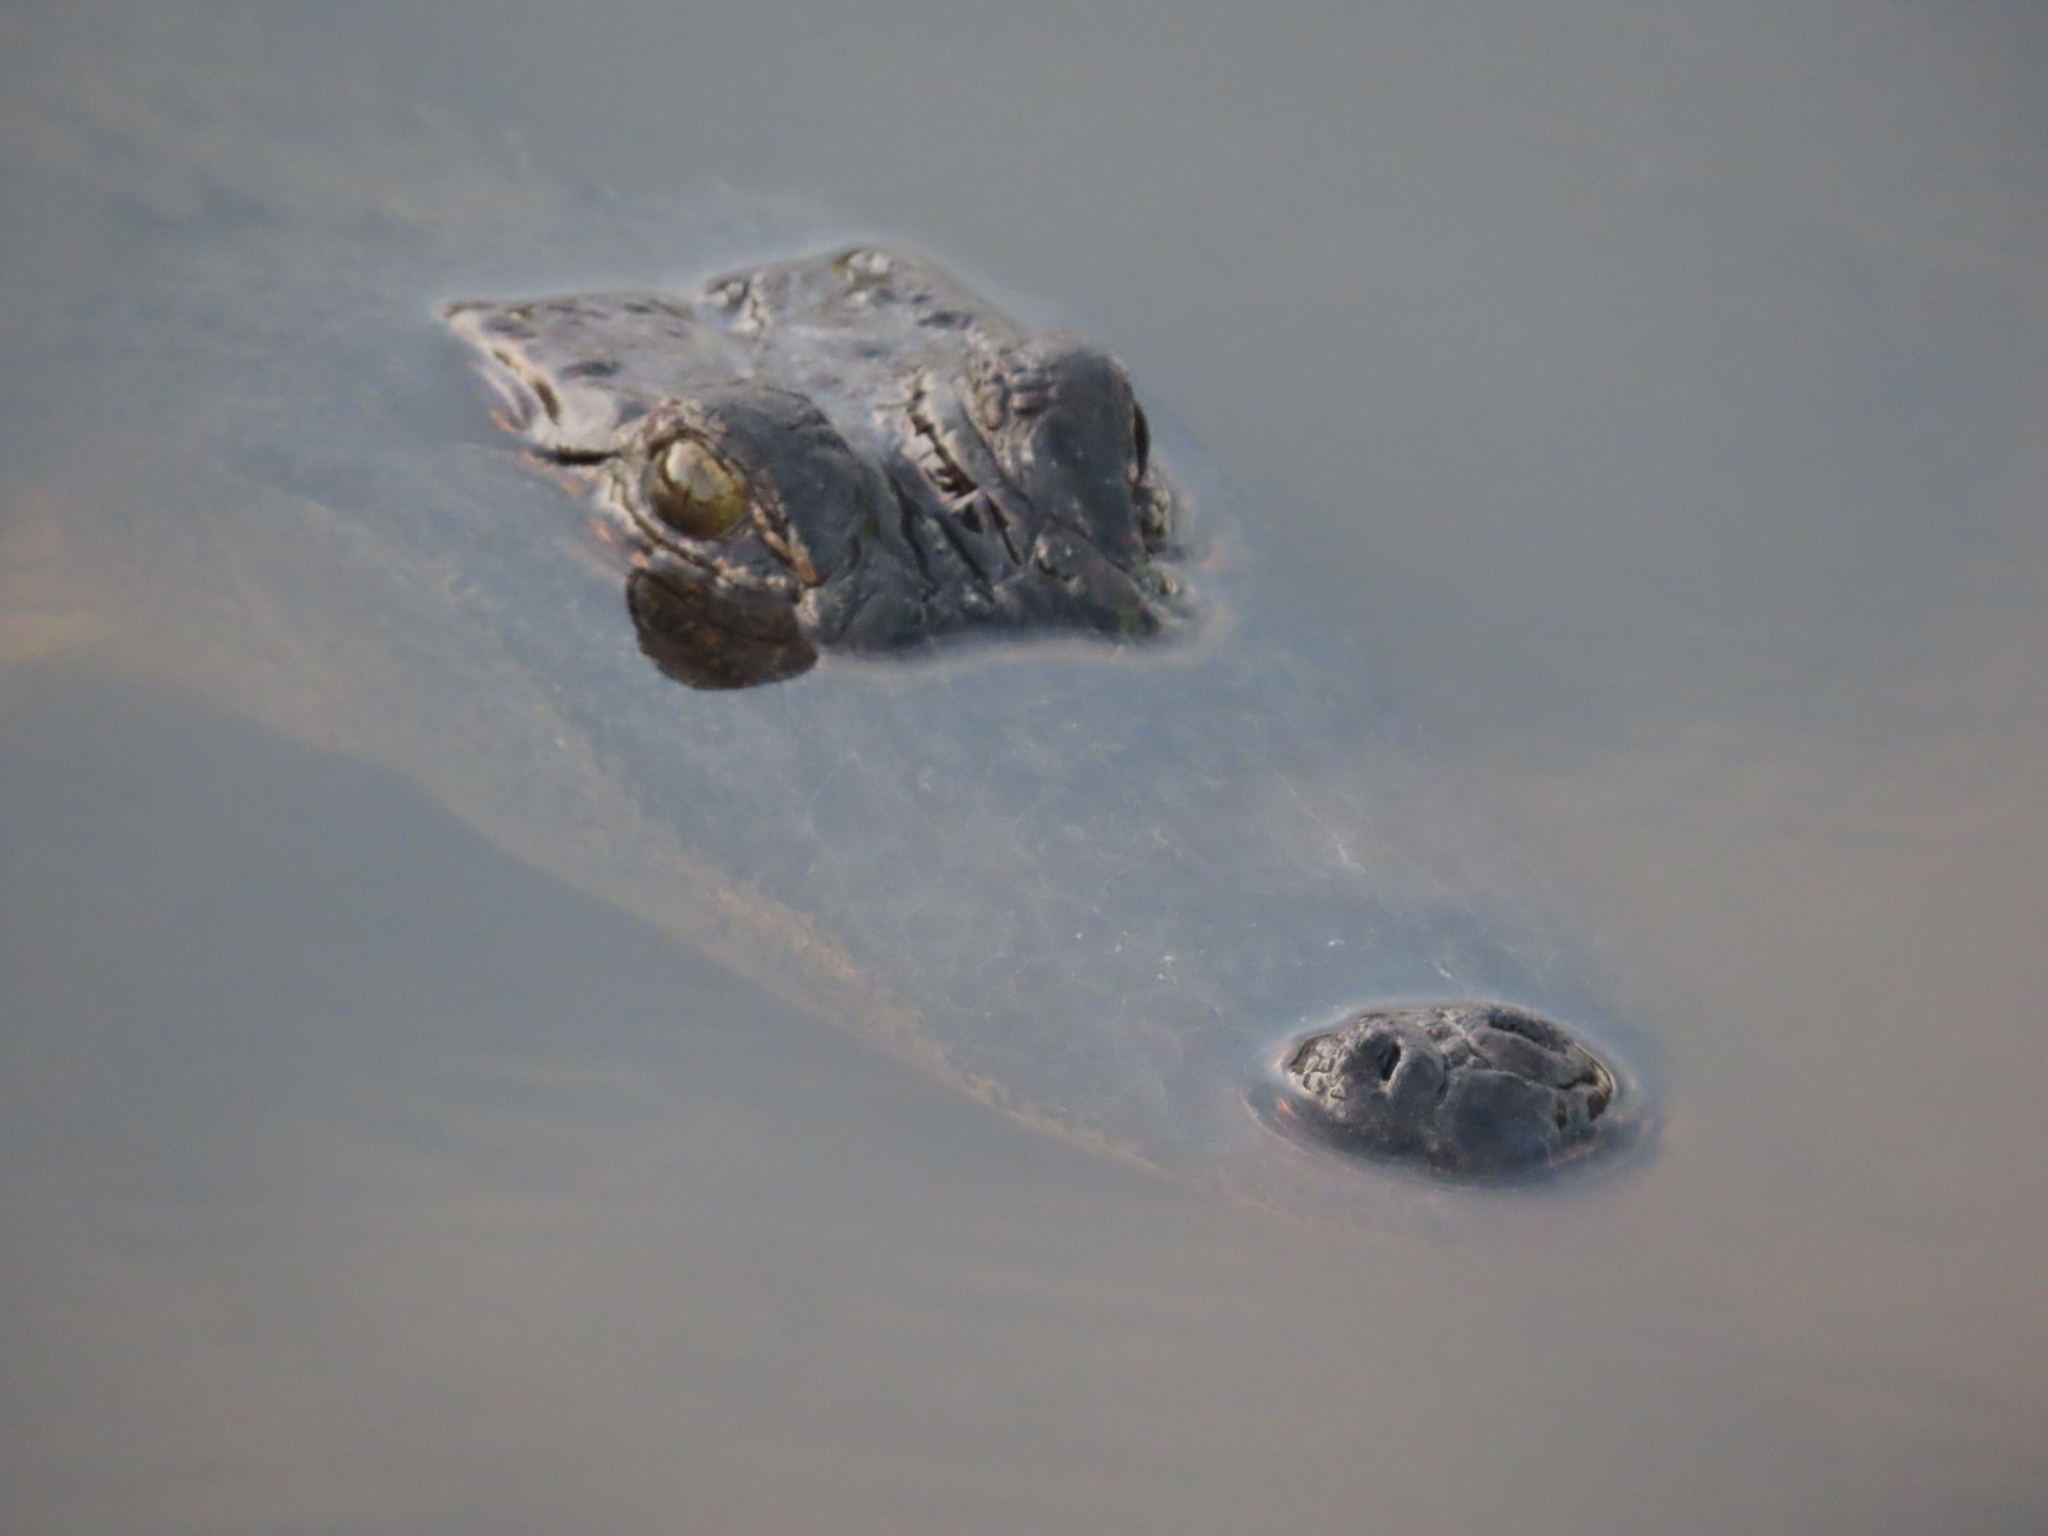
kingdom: Animalia
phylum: Chordata
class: Crocodylia
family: Alligatoridae
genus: Alligator
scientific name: Alligator mississippiensis
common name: American alligator
